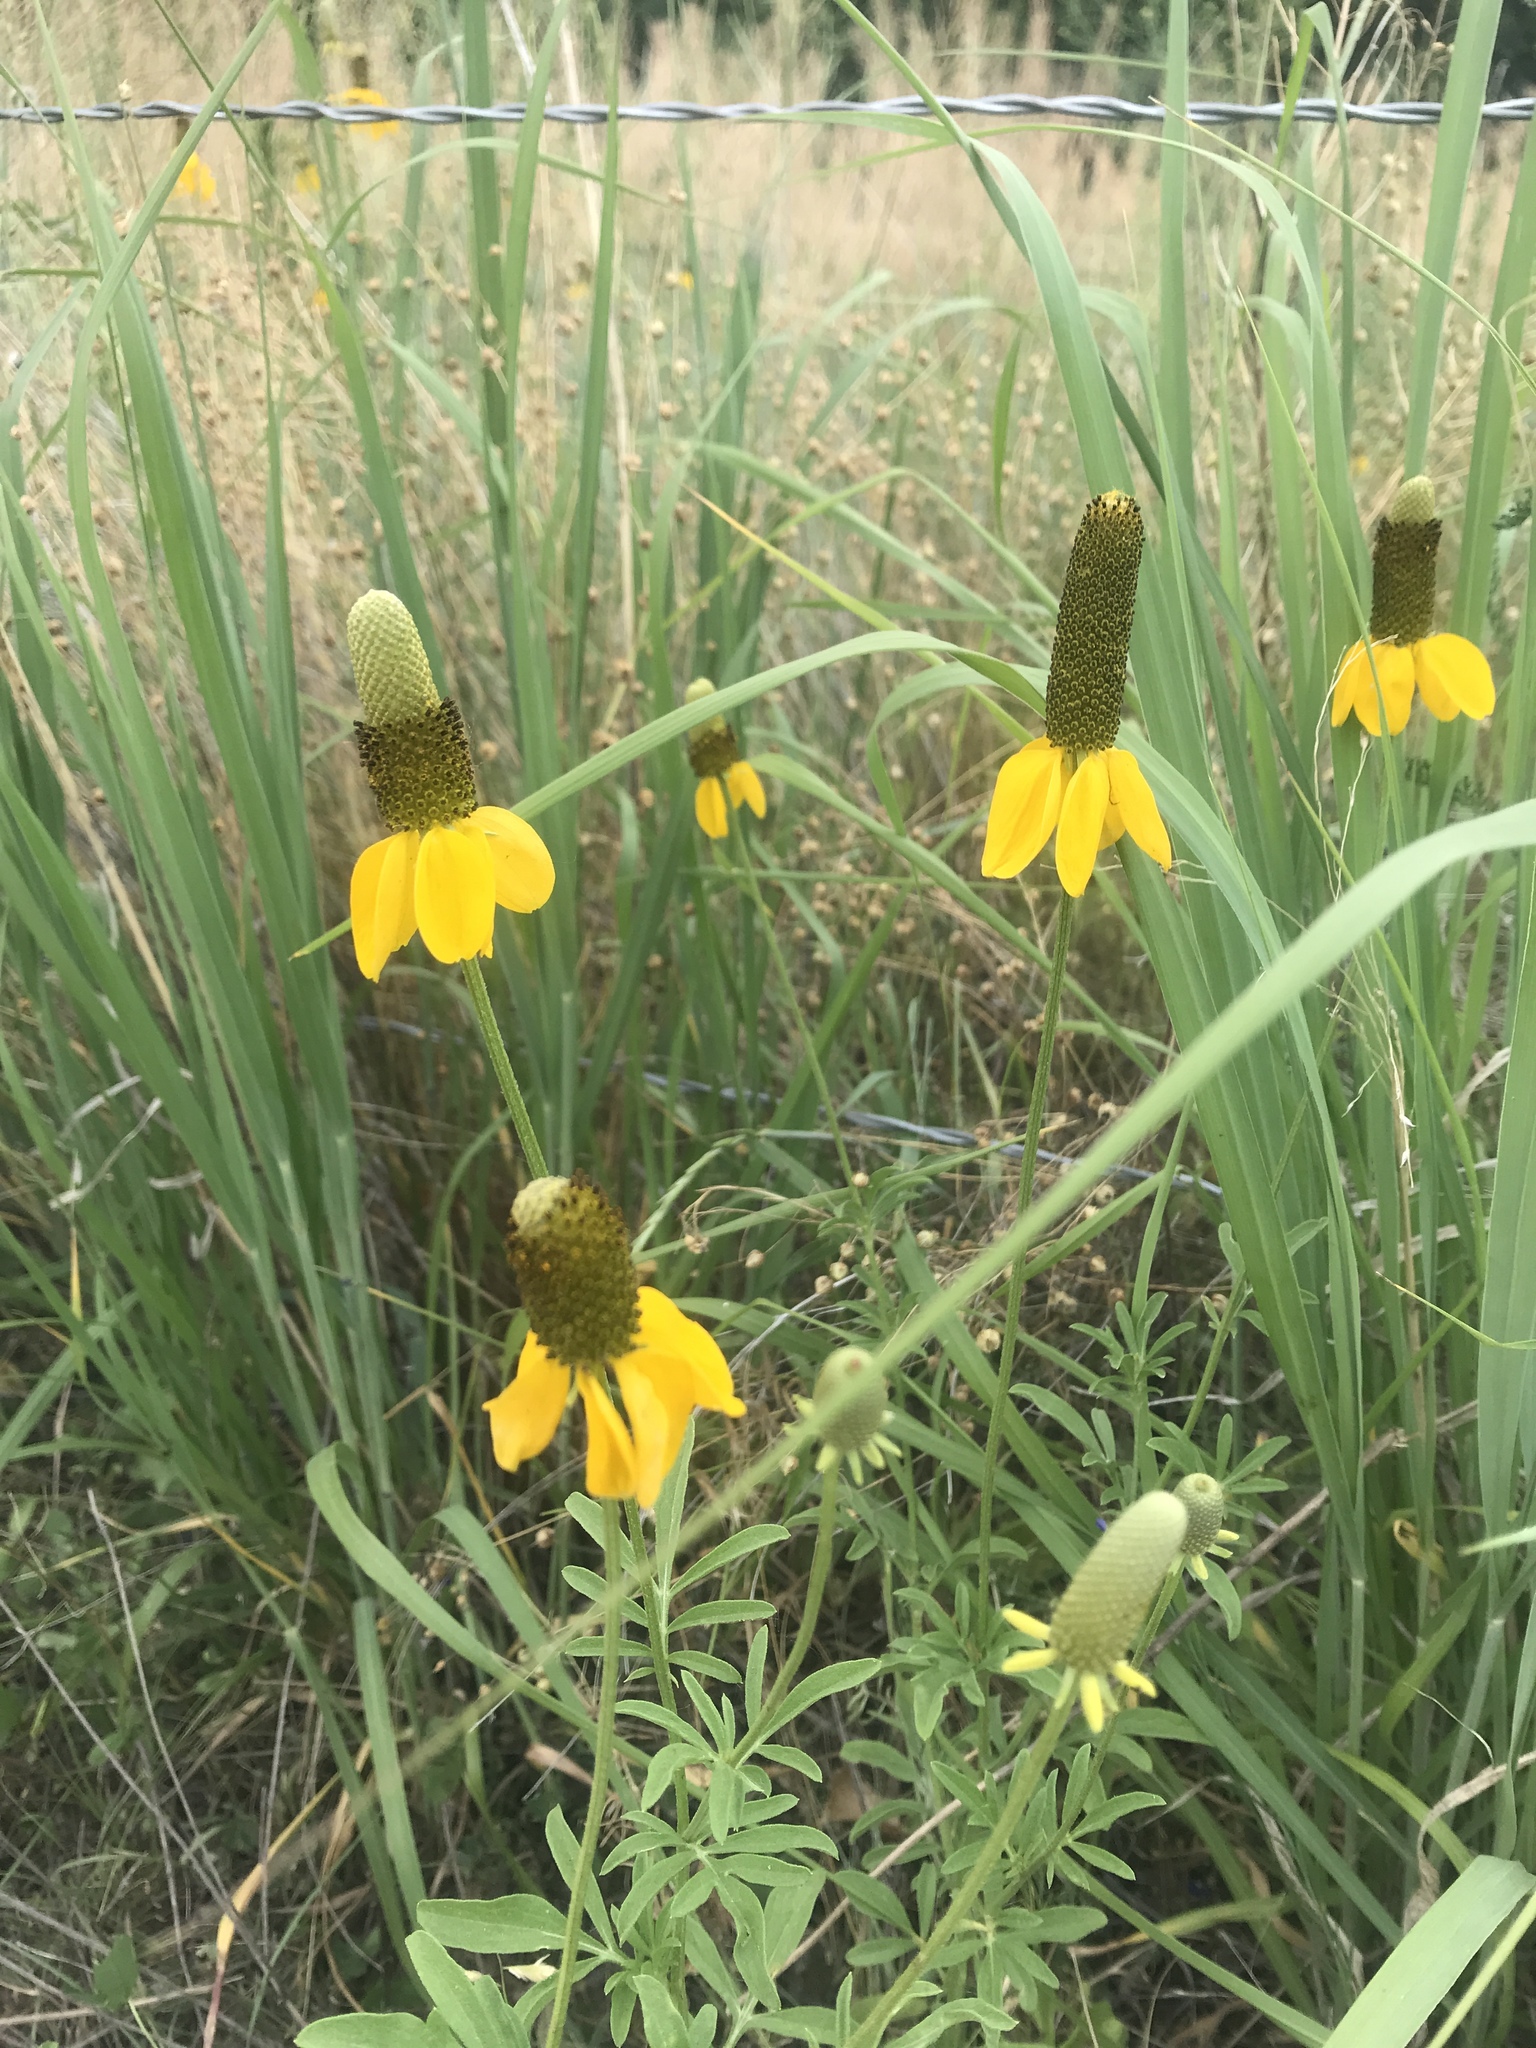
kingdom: Plantae
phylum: Tracheophyta
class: Magnoliopsida
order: Asterales
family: Asteraceae
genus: Ratibida
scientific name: Ratibida columnifera
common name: Prairie coneflower
